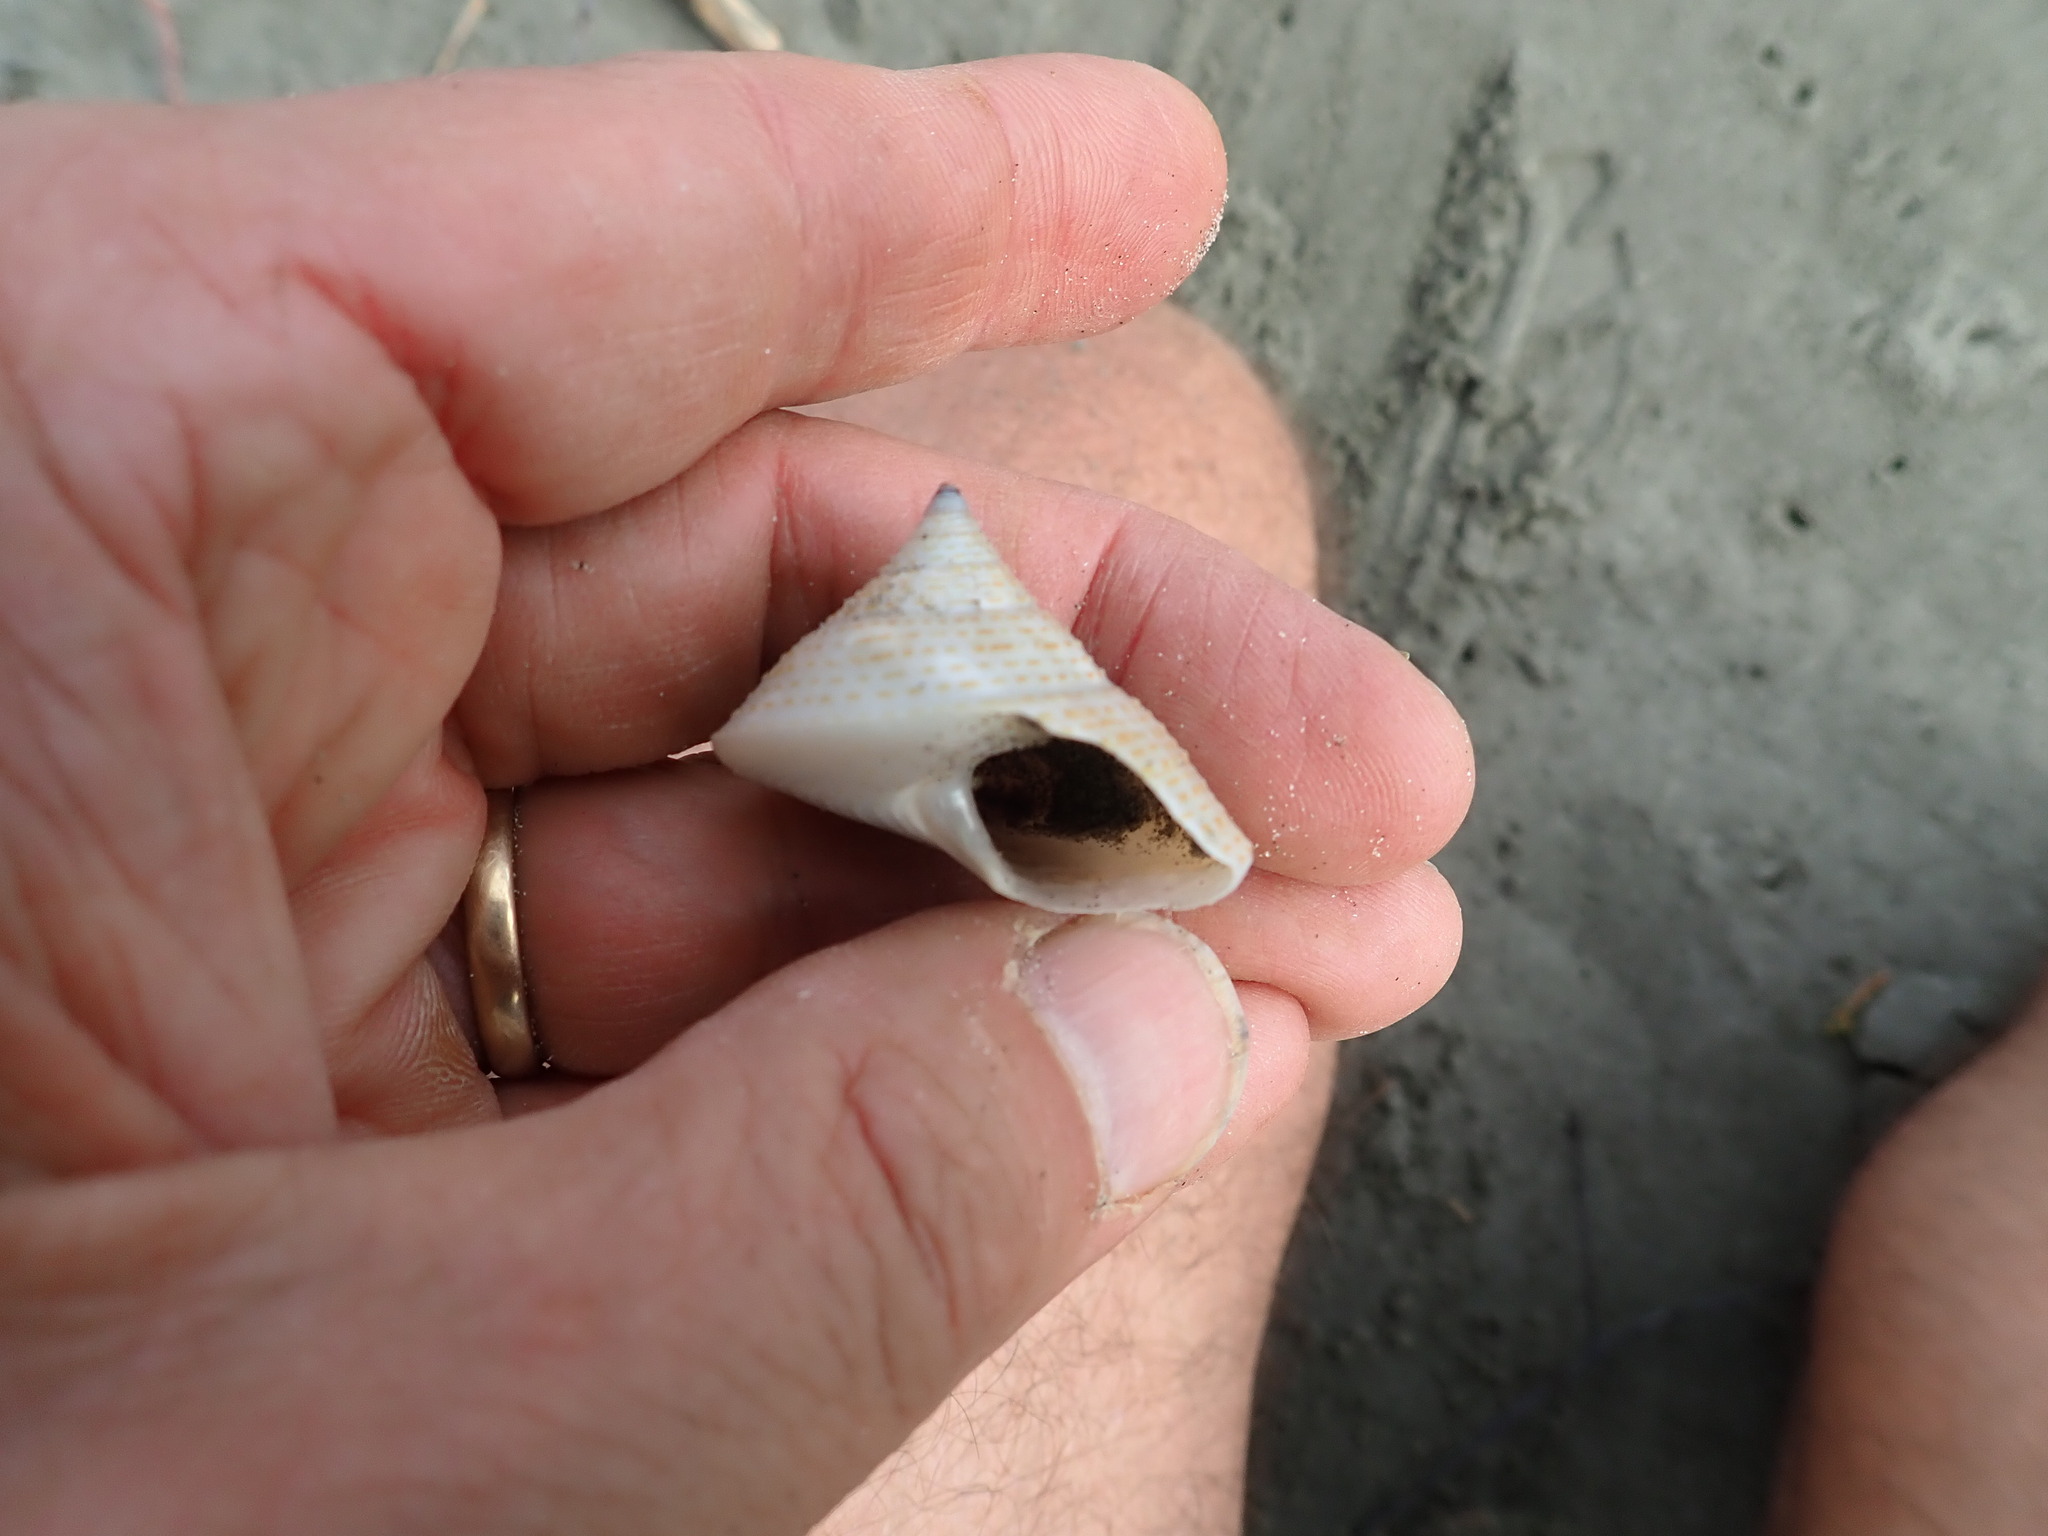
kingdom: Animalia
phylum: Mollusca
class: Gastropoda
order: Trochida
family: Calliostomatidae
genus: Maurea
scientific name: Maurea selecta
